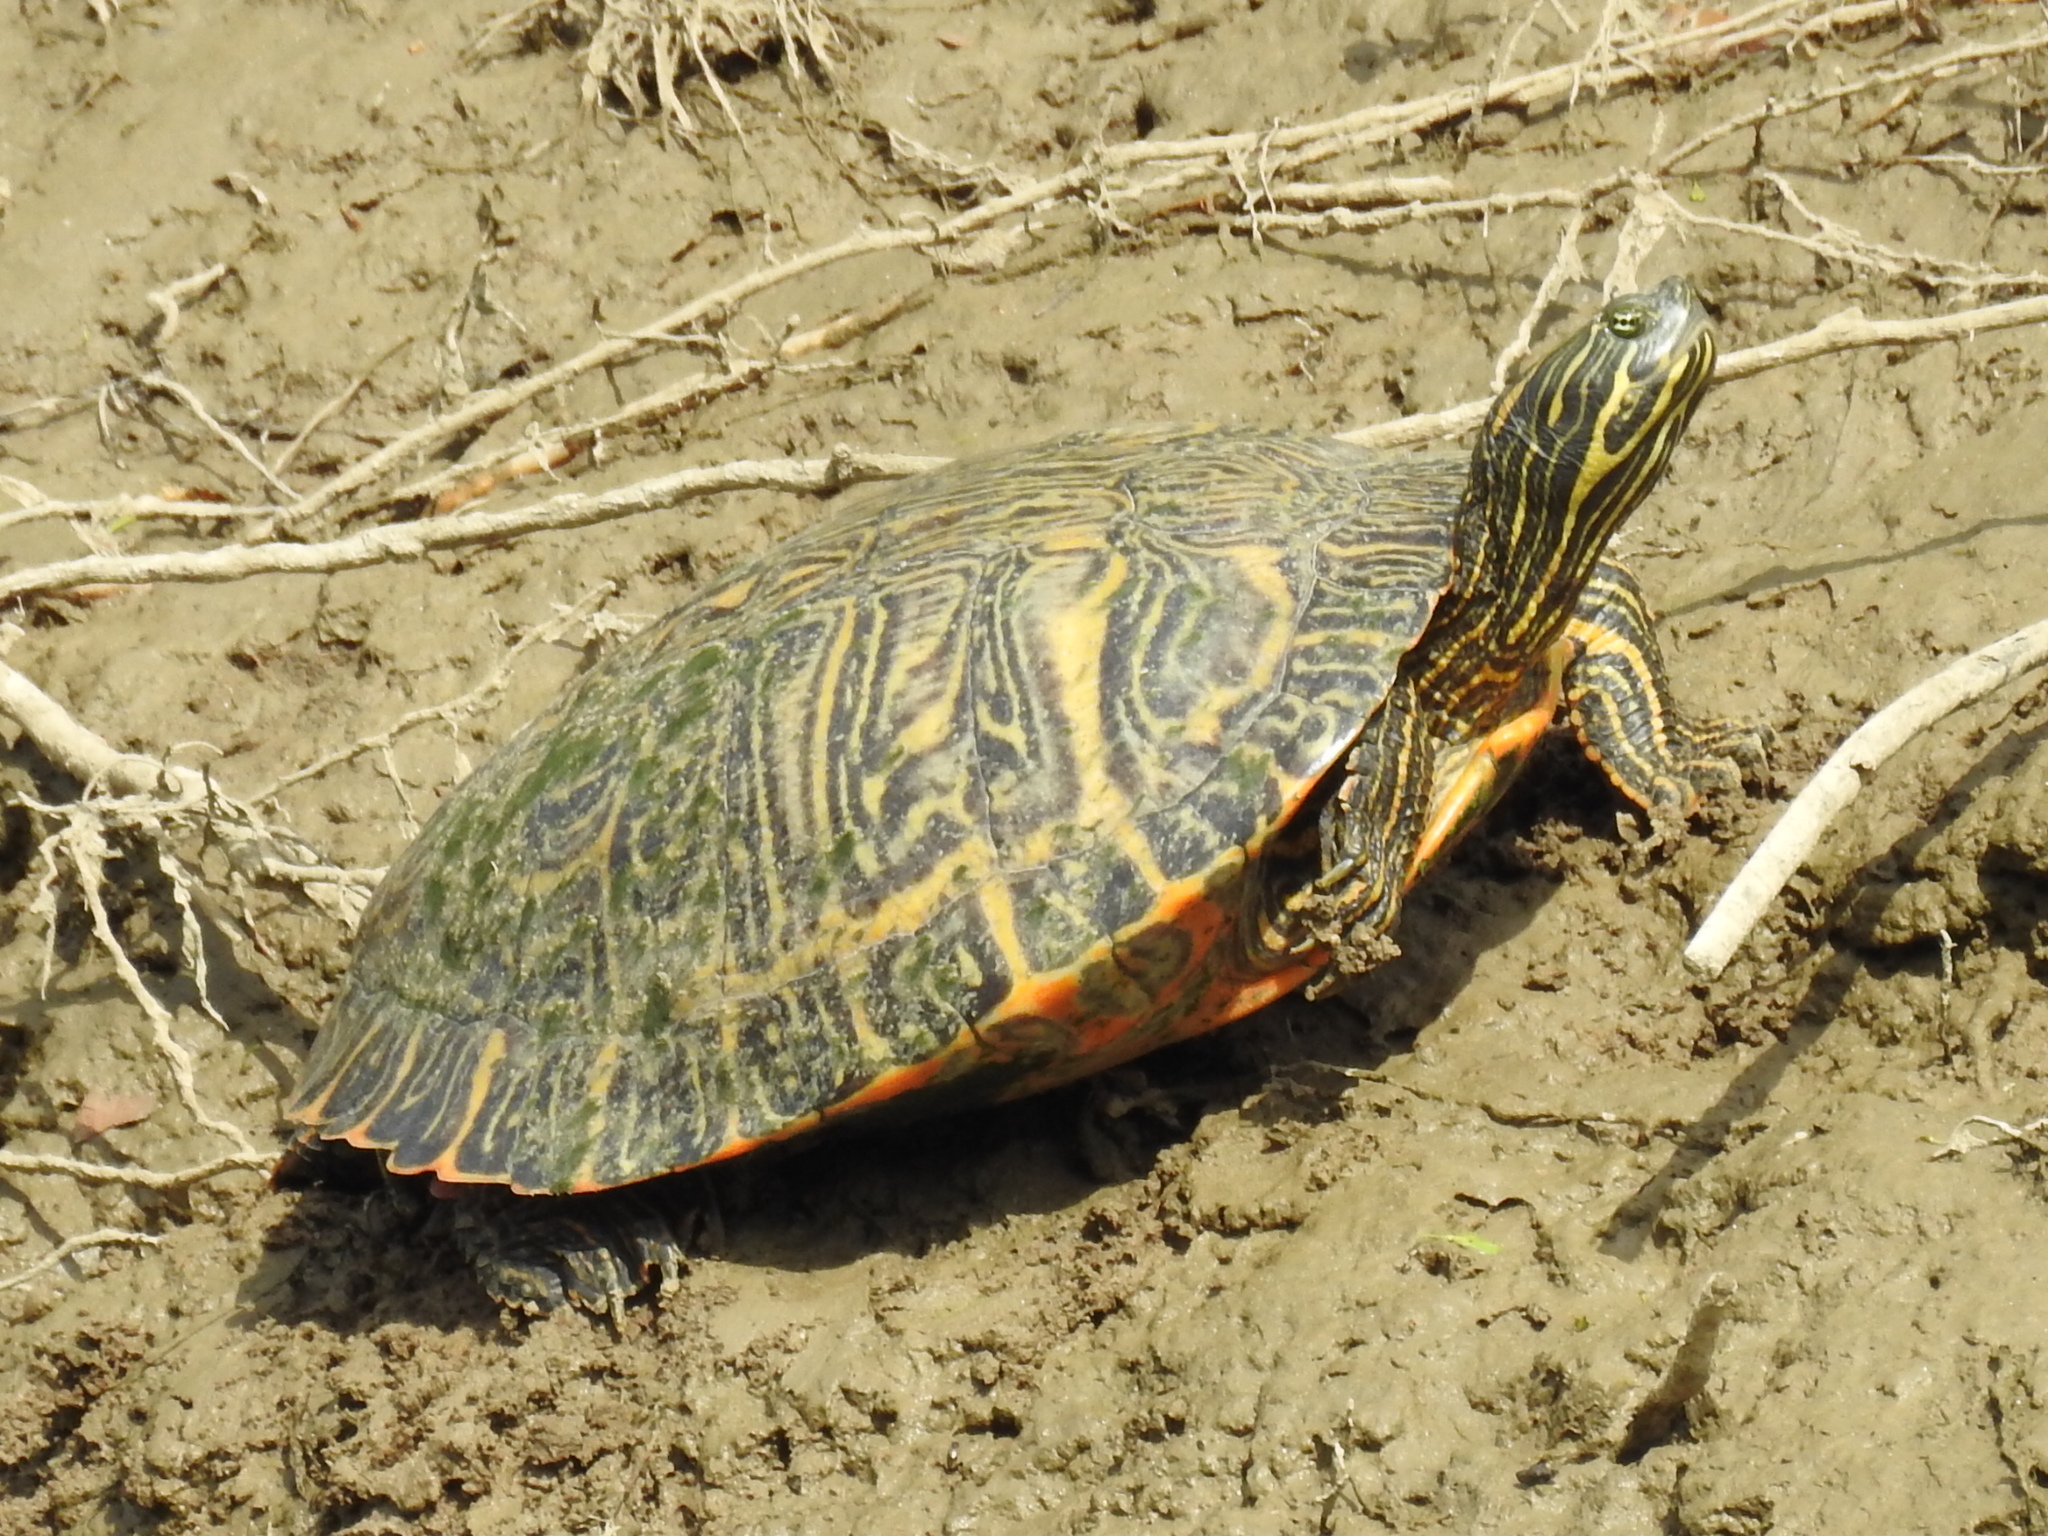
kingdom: Animalia
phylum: Chordata
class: Testudines
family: Emydidae
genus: Pseudemys
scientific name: Pseudemys concinna
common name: Eastern river cooter
